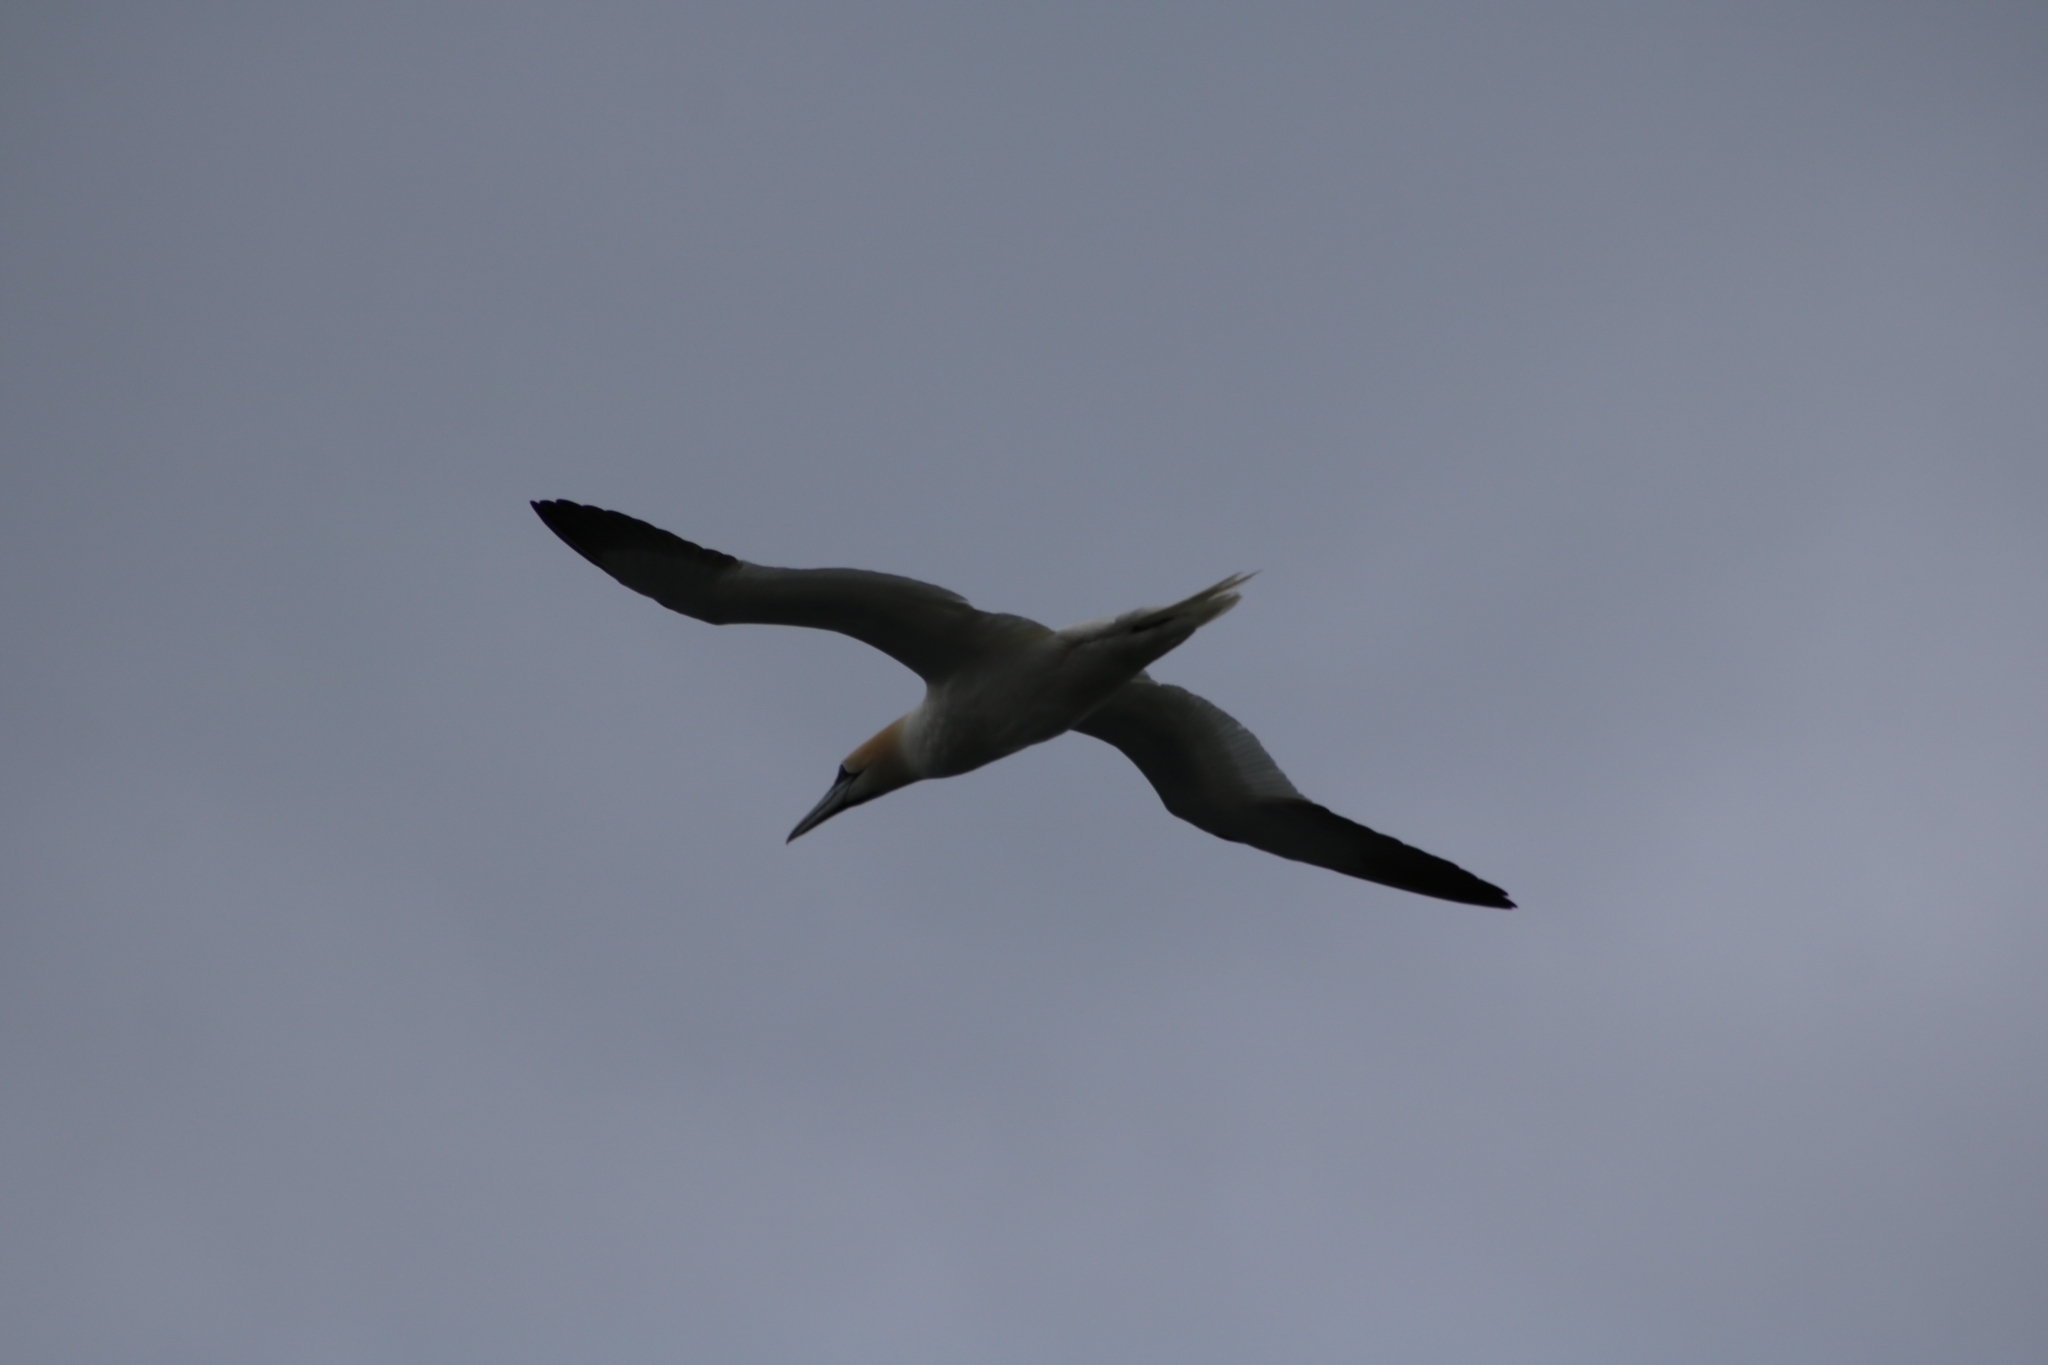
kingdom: Animalia
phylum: Chordata
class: Aves
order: Suliformes
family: Sulidae
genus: Morus
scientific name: Morus bassanus
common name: Northern gannet
